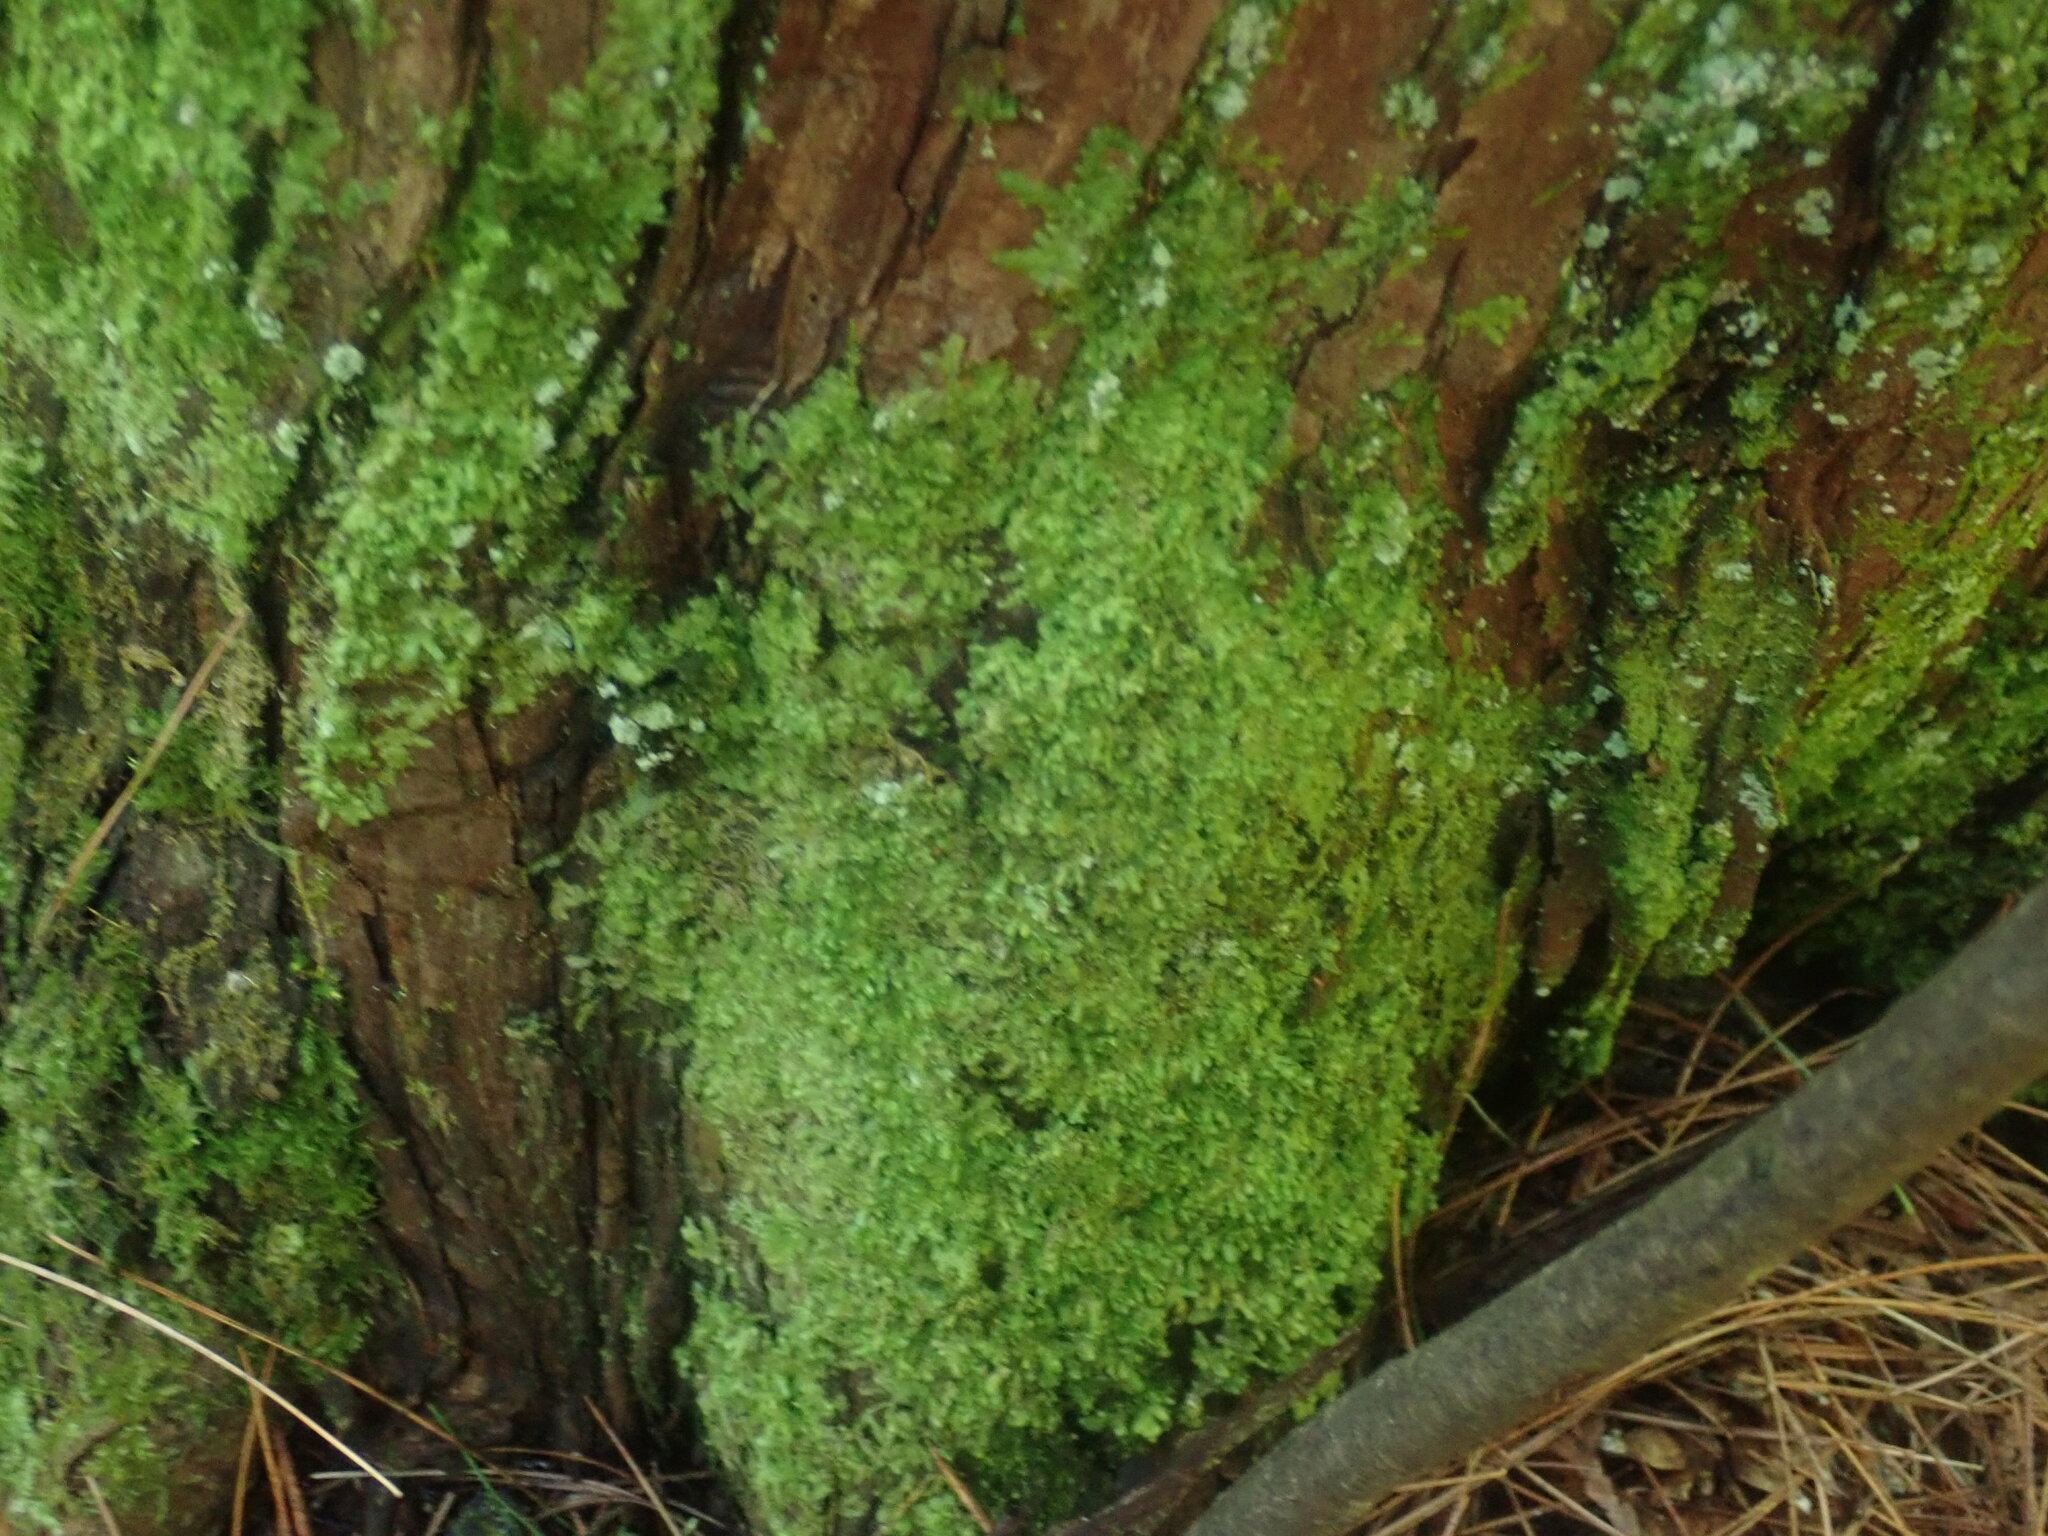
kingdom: Plantae
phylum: Marchantiophyta
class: Jungermanniopsida
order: Porellales
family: Radulaceae
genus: Radula
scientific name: Radula complanata
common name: Flat-leaved scalewort
